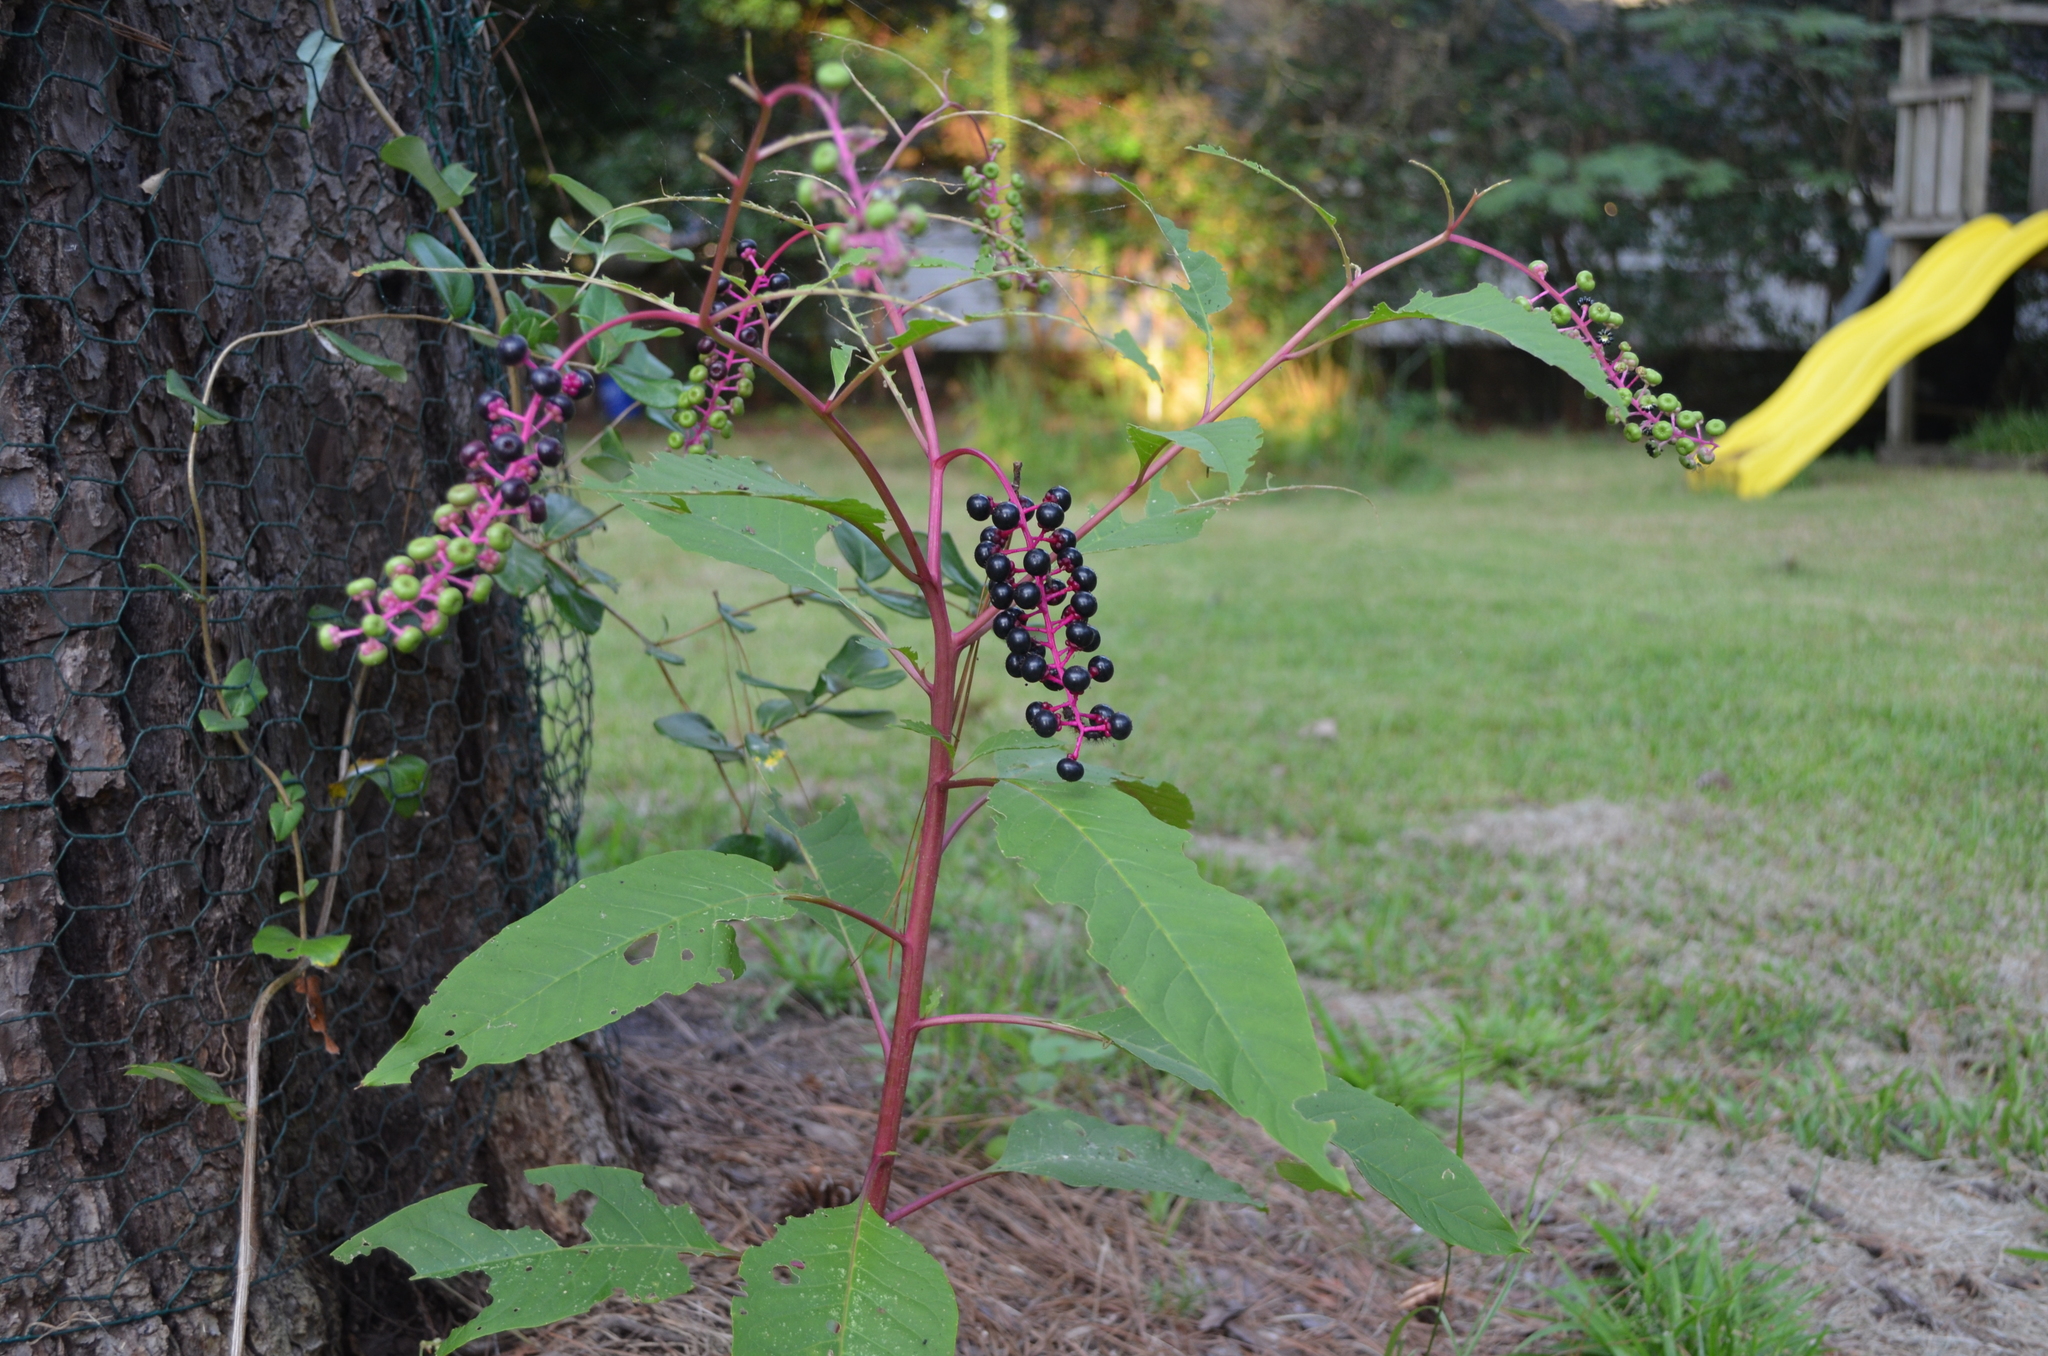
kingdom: Plantae
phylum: Tracheophyta
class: Magnoliopsida
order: Caryophyllales
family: Phytolaccaceae
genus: Phytolacca
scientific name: Phytolacca americana
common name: American pokeweed
